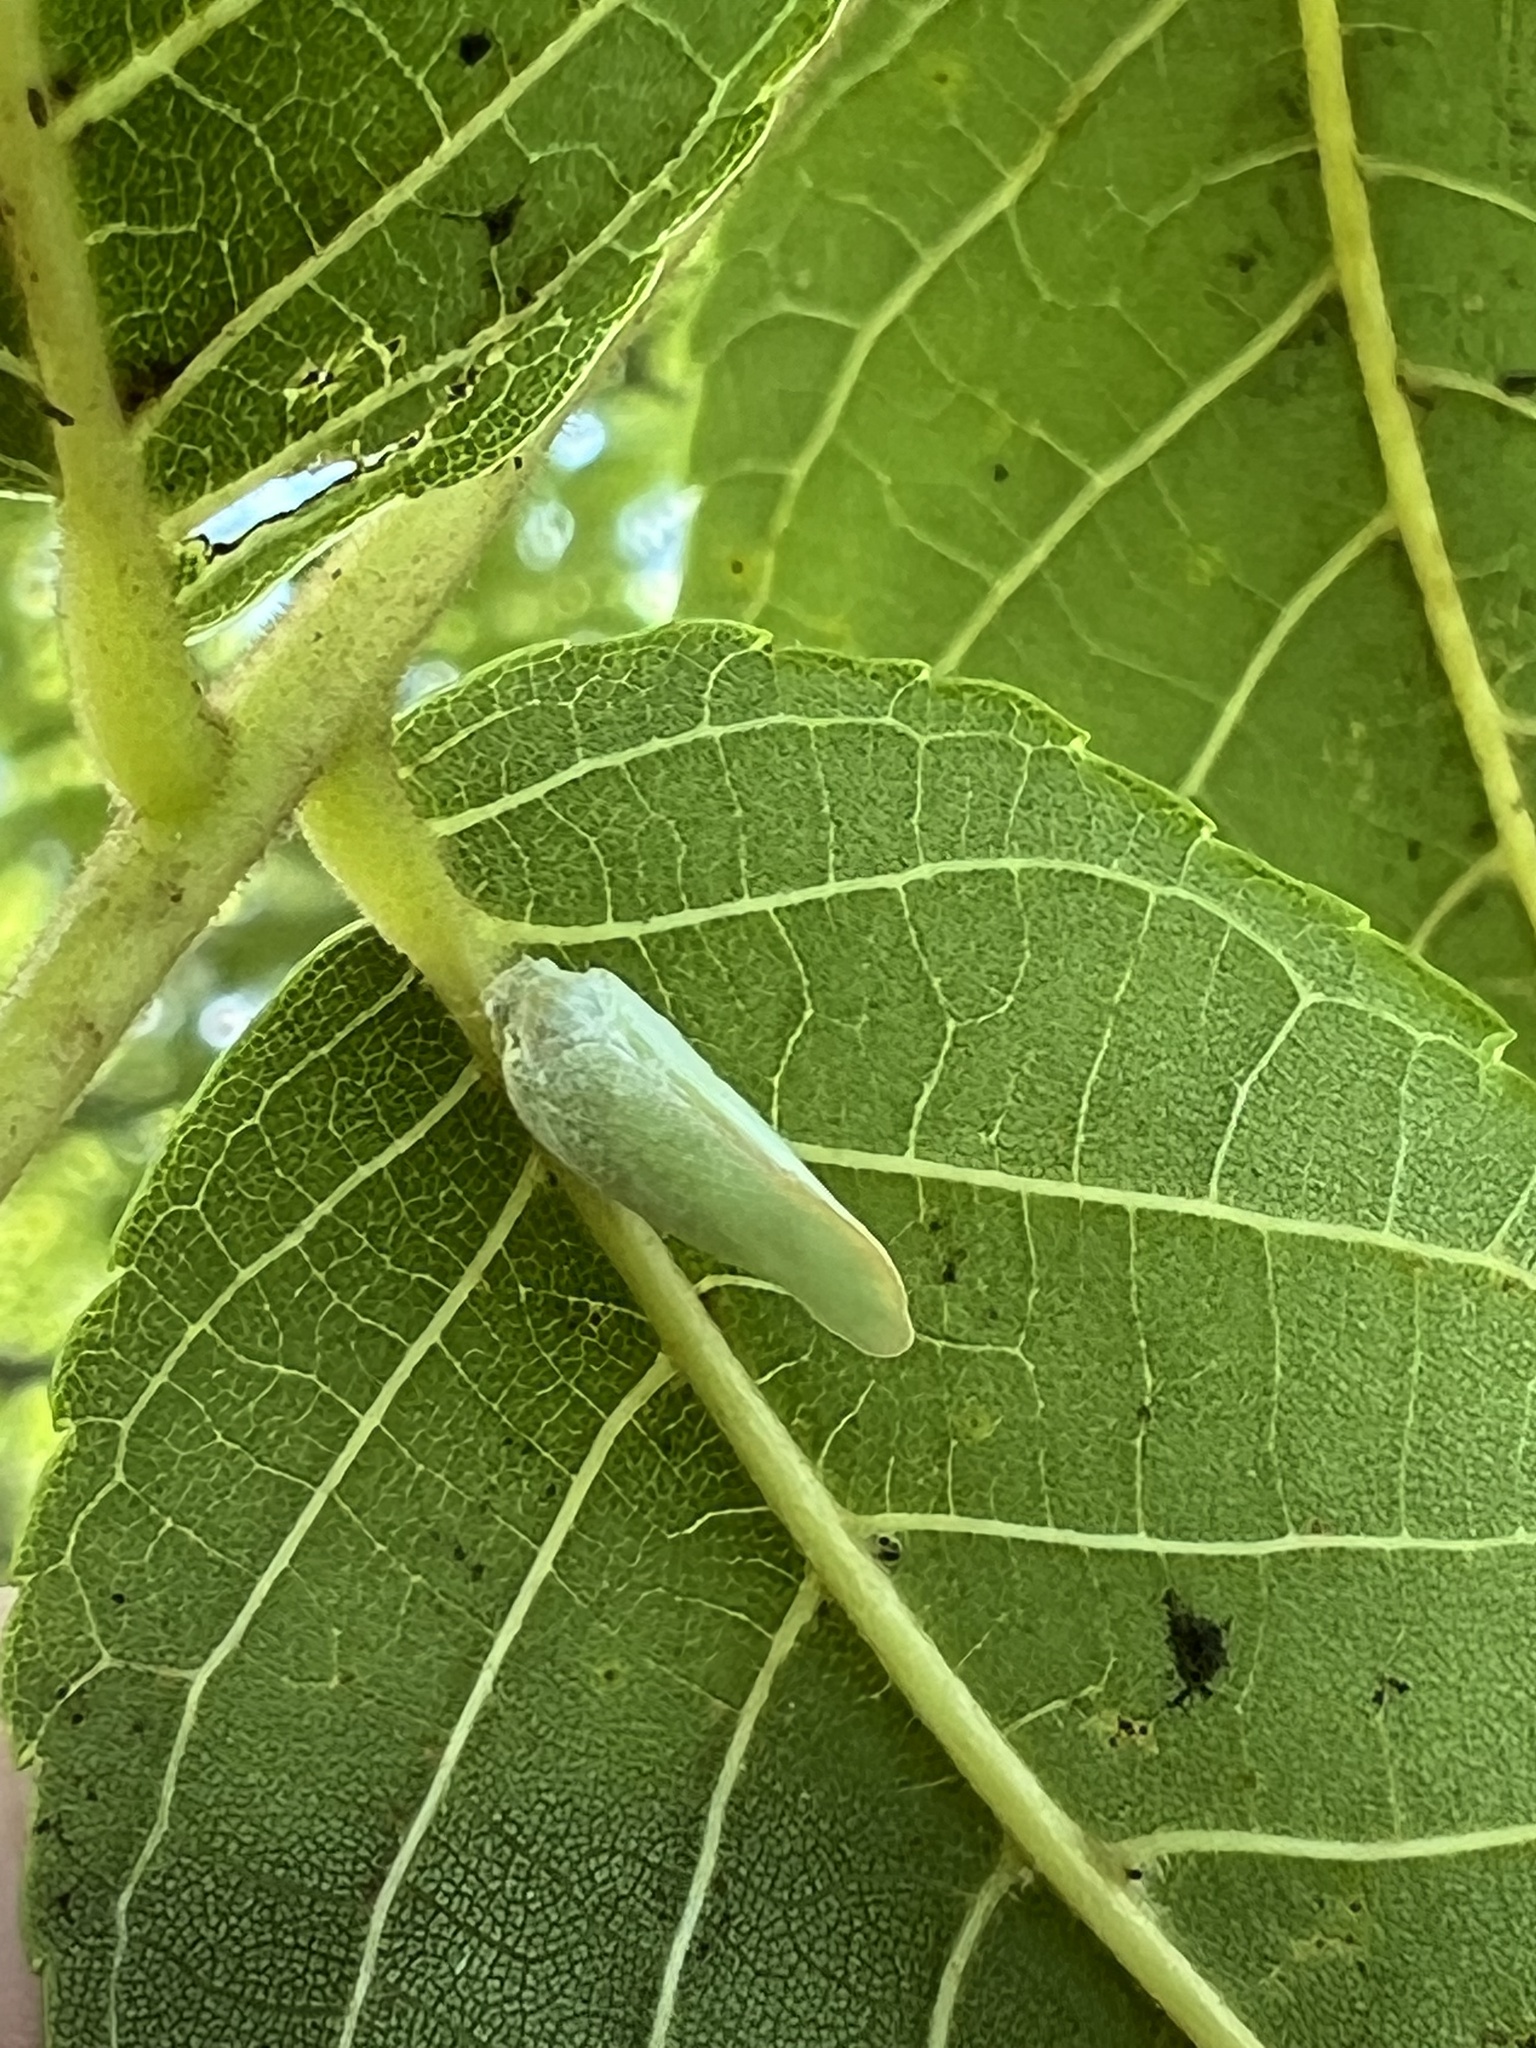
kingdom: Animalia
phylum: Arthropoda
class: Insecta
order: Hemiptera
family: Flatidae
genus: Ormenoides
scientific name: Ormenoides venusta
